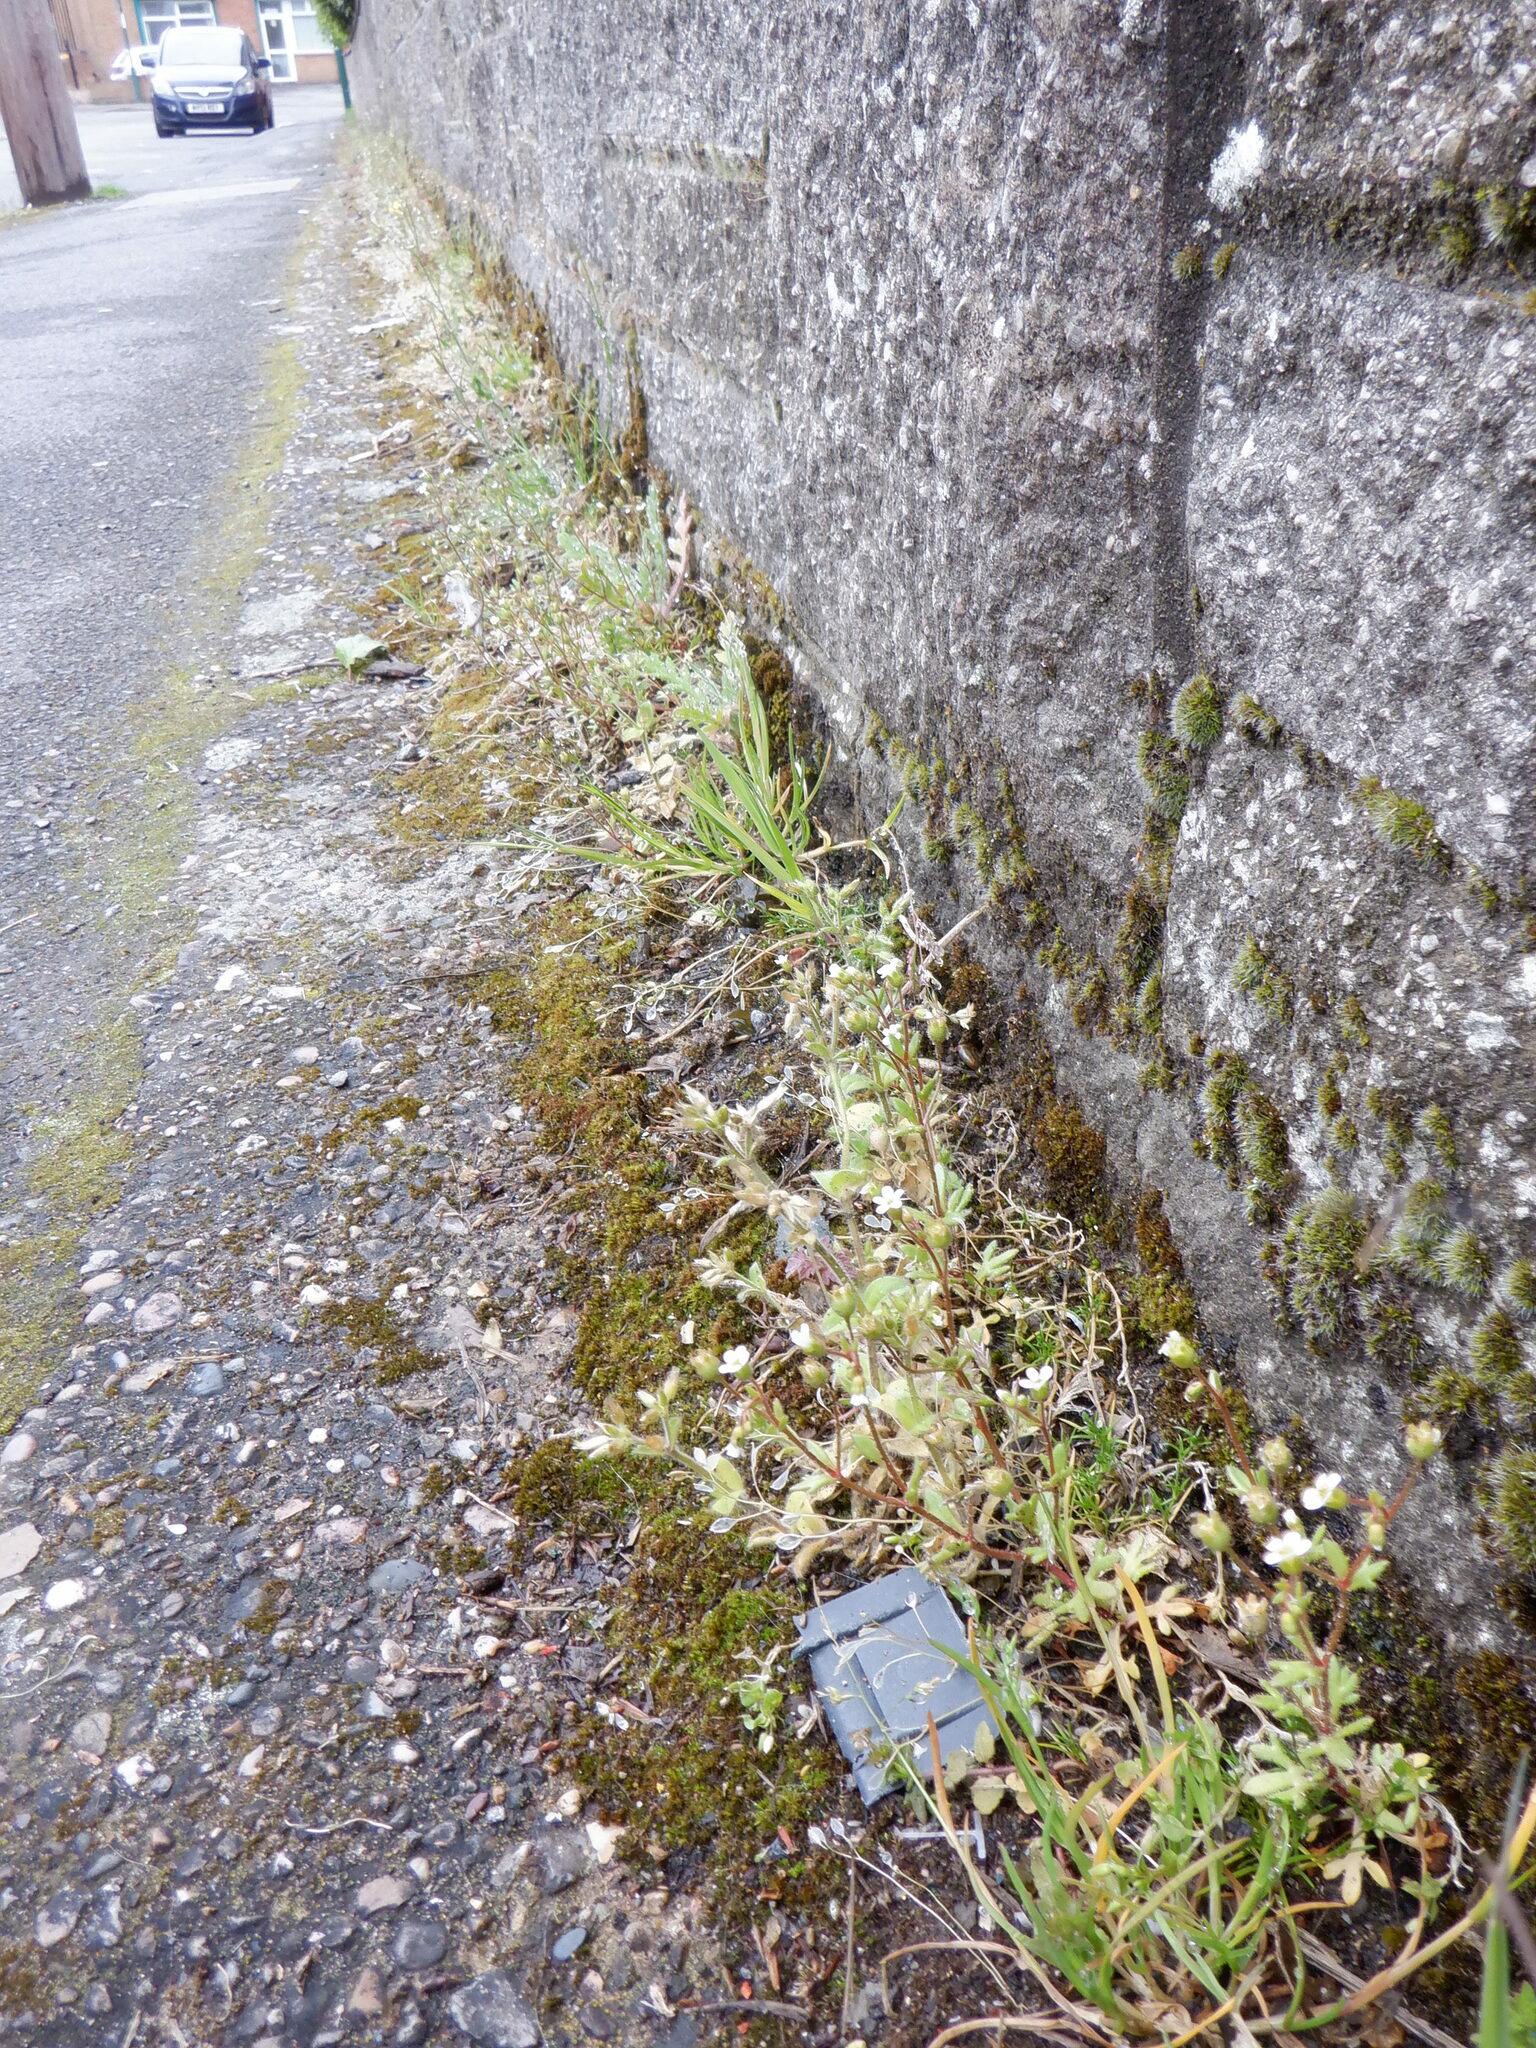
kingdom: Plantae
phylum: Tracheophyta
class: Magnoliopsida
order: Saxifragales
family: Saxifragaceae
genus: Saxifraga
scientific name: Saxifraga tridactylites
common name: Rue-leaved saxifrage
